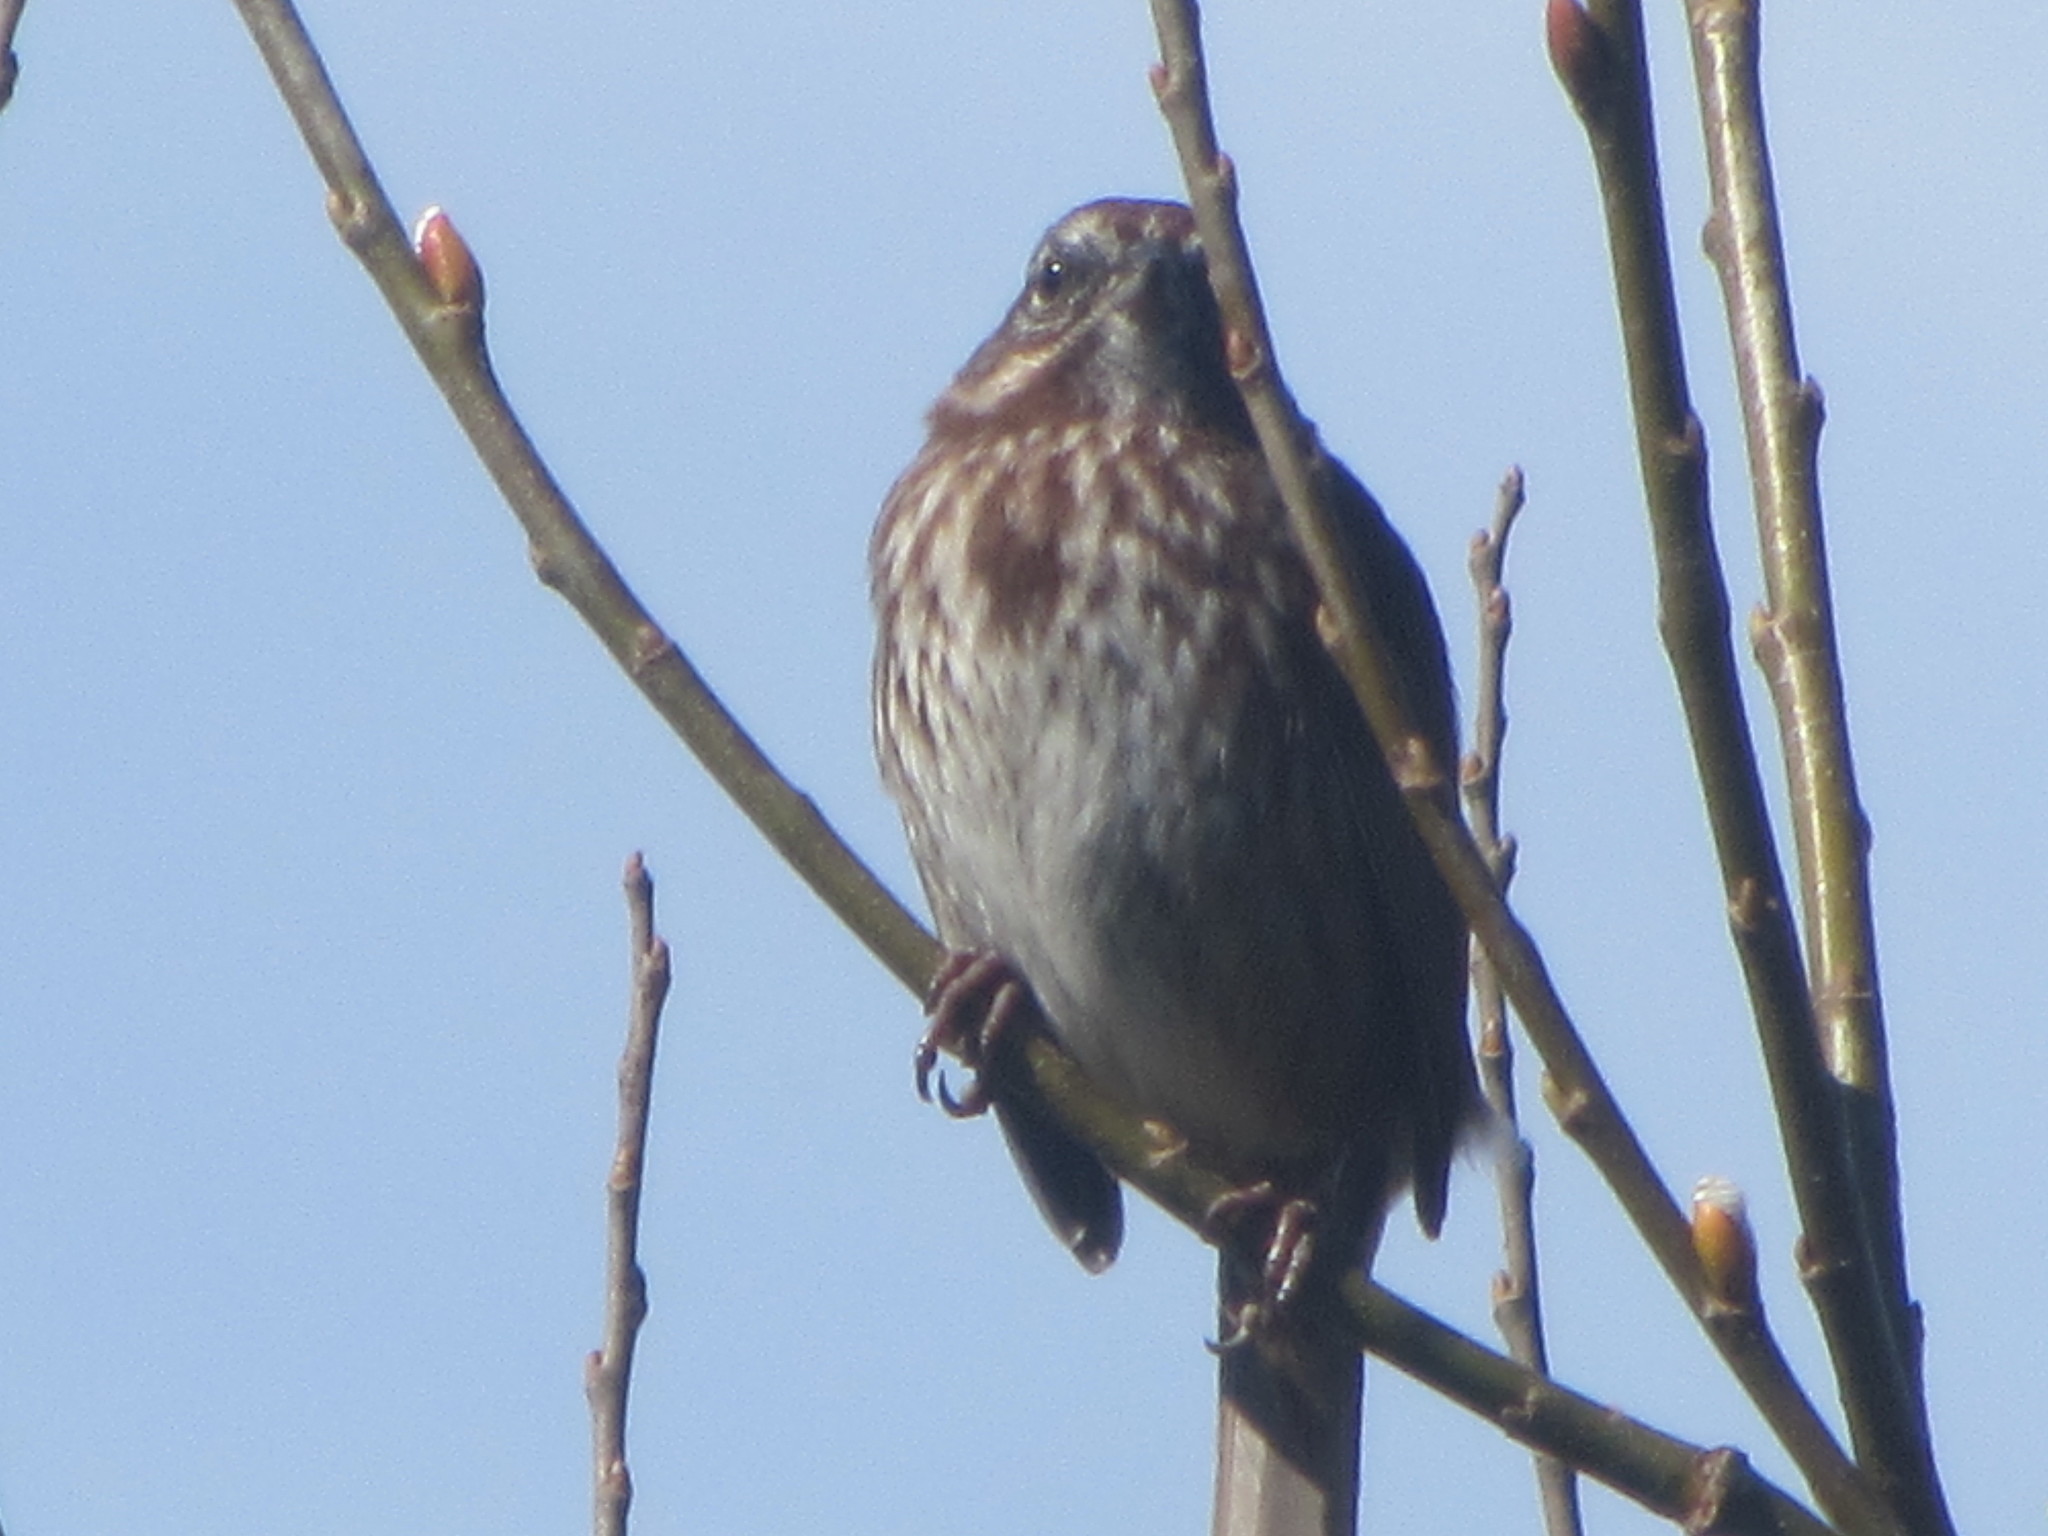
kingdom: Animalia
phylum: Chordata
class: Aves
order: Passeriformes
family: Passerellidae
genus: Melospiza
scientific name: Melospiza melodia
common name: Song sparrow
